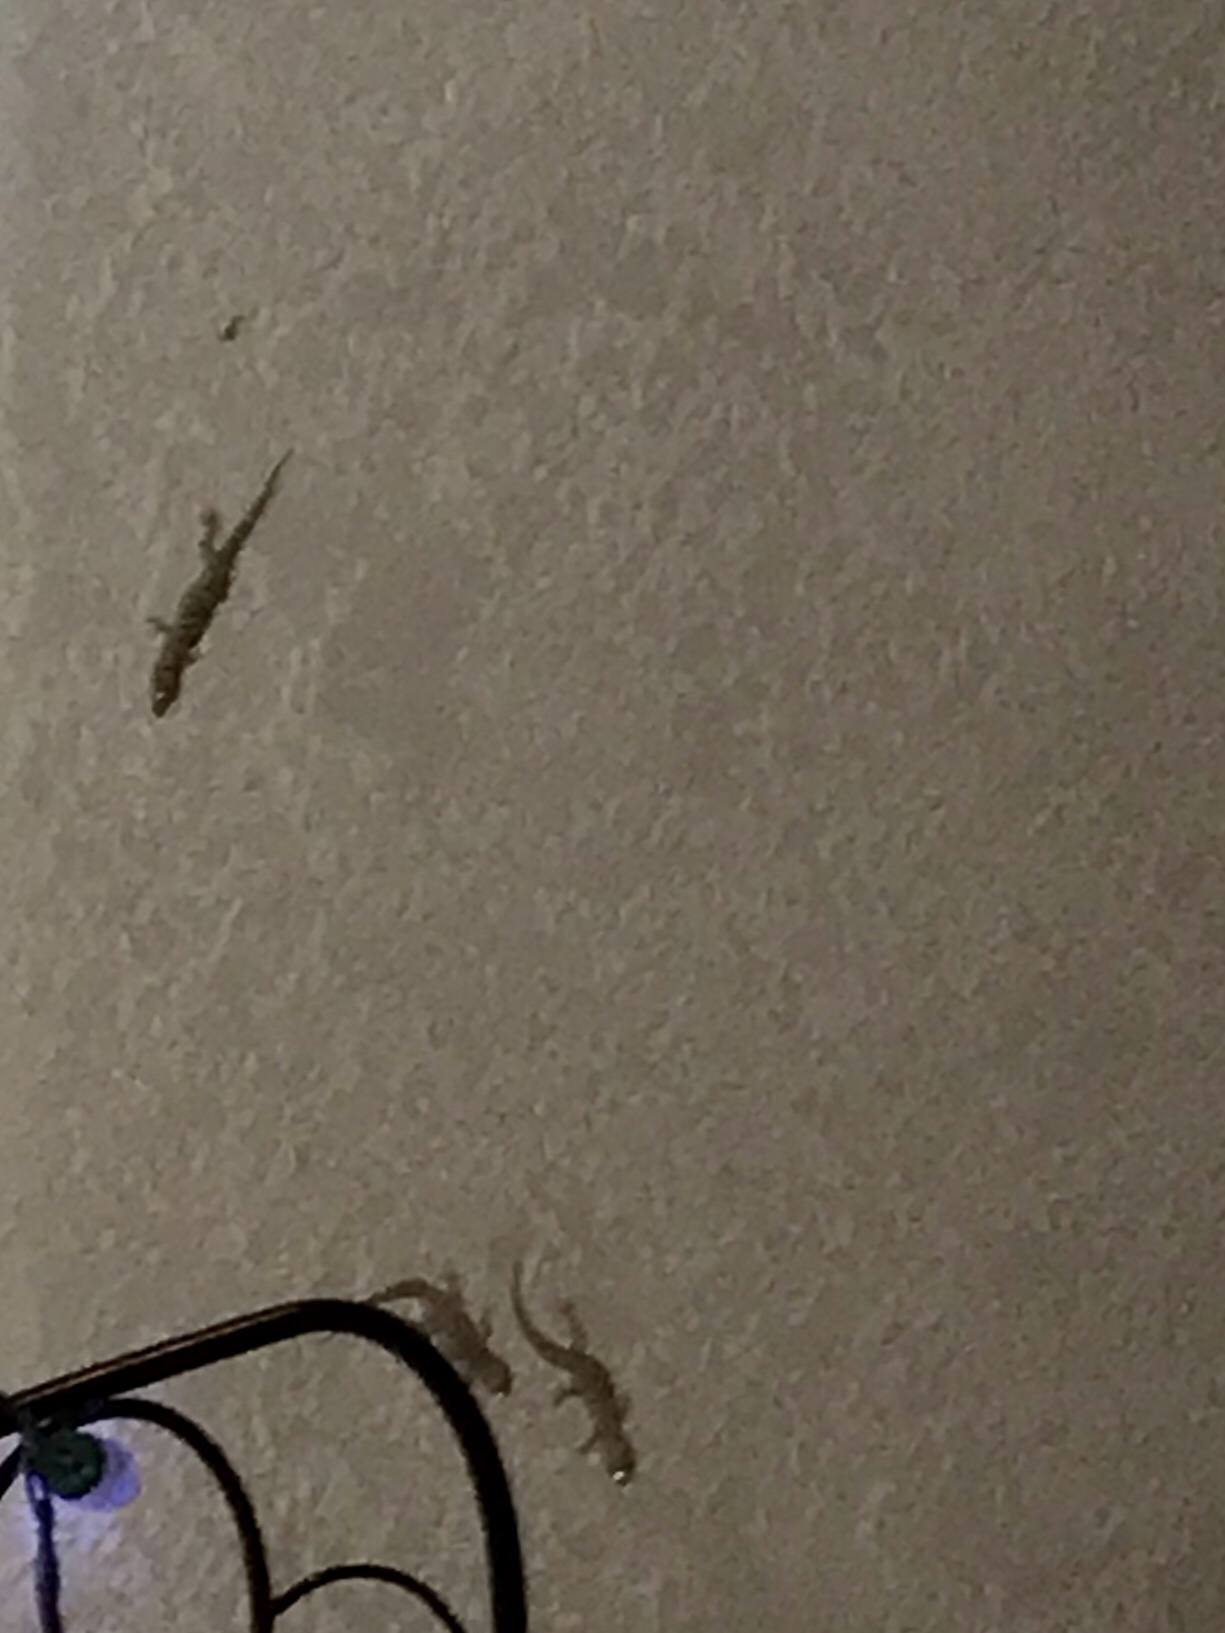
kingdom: Animalia
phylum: Chordata
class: Squamata
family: Gekkonidae
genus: Hemidactylus
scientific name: Hemidactylus turcicus
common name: Turkish gecko
